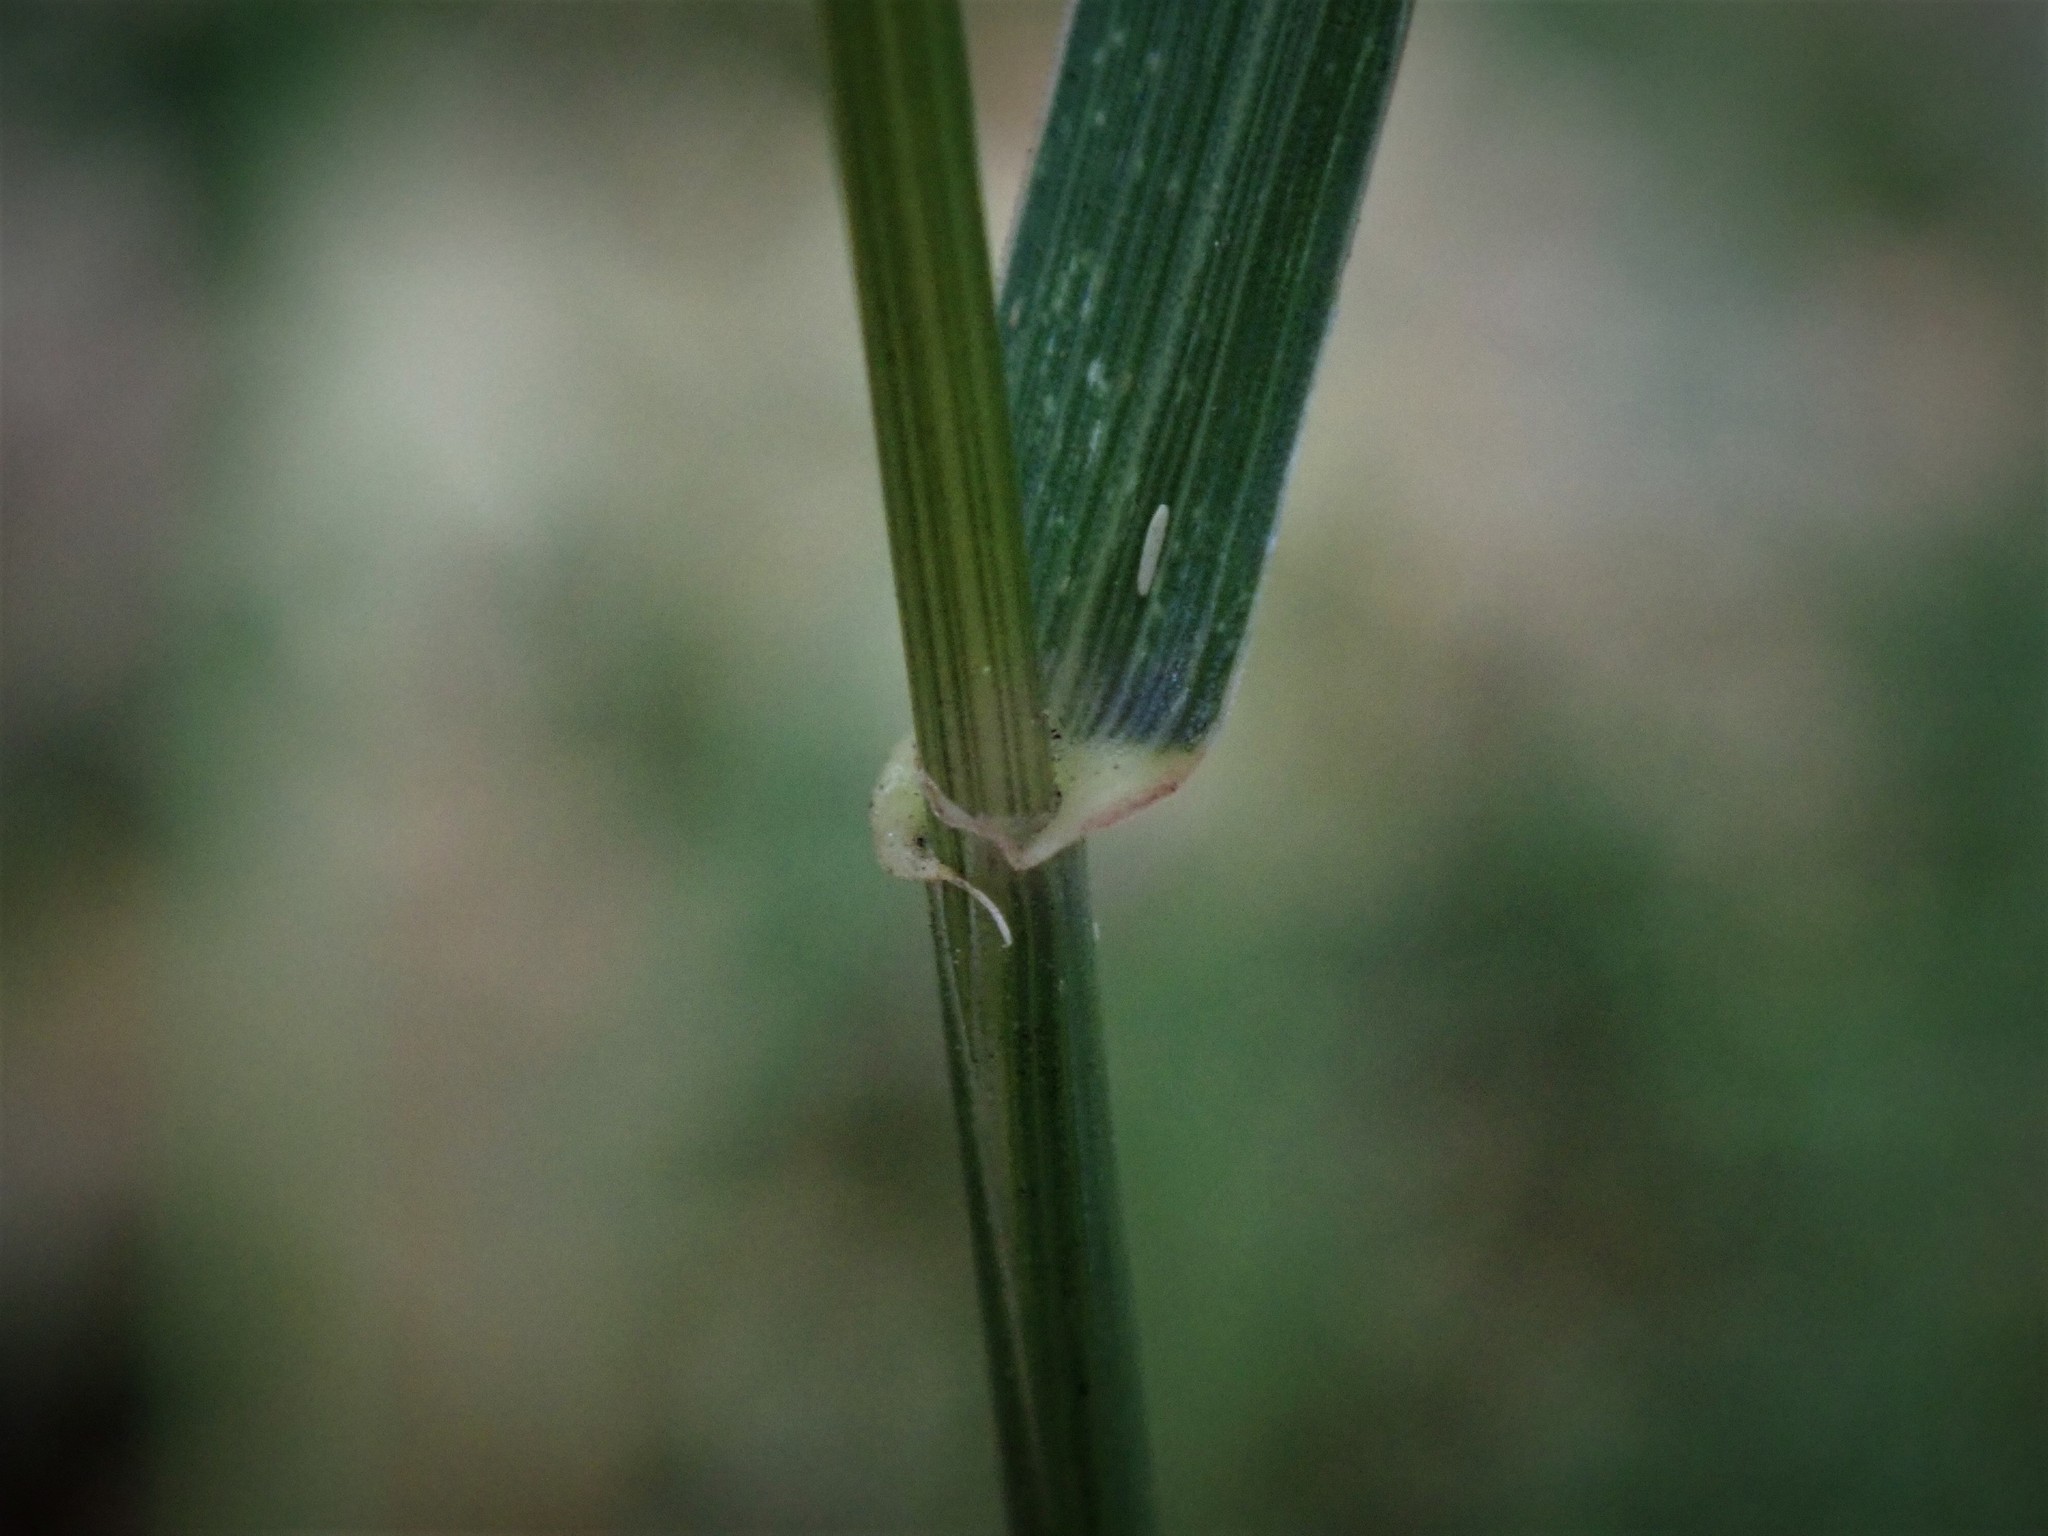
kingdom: Plantae
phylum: Tracheophyta
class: Liliopsida
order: Poales
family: Poaceae
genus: Elymus
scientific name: Elymus repens
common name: Quackgrass
